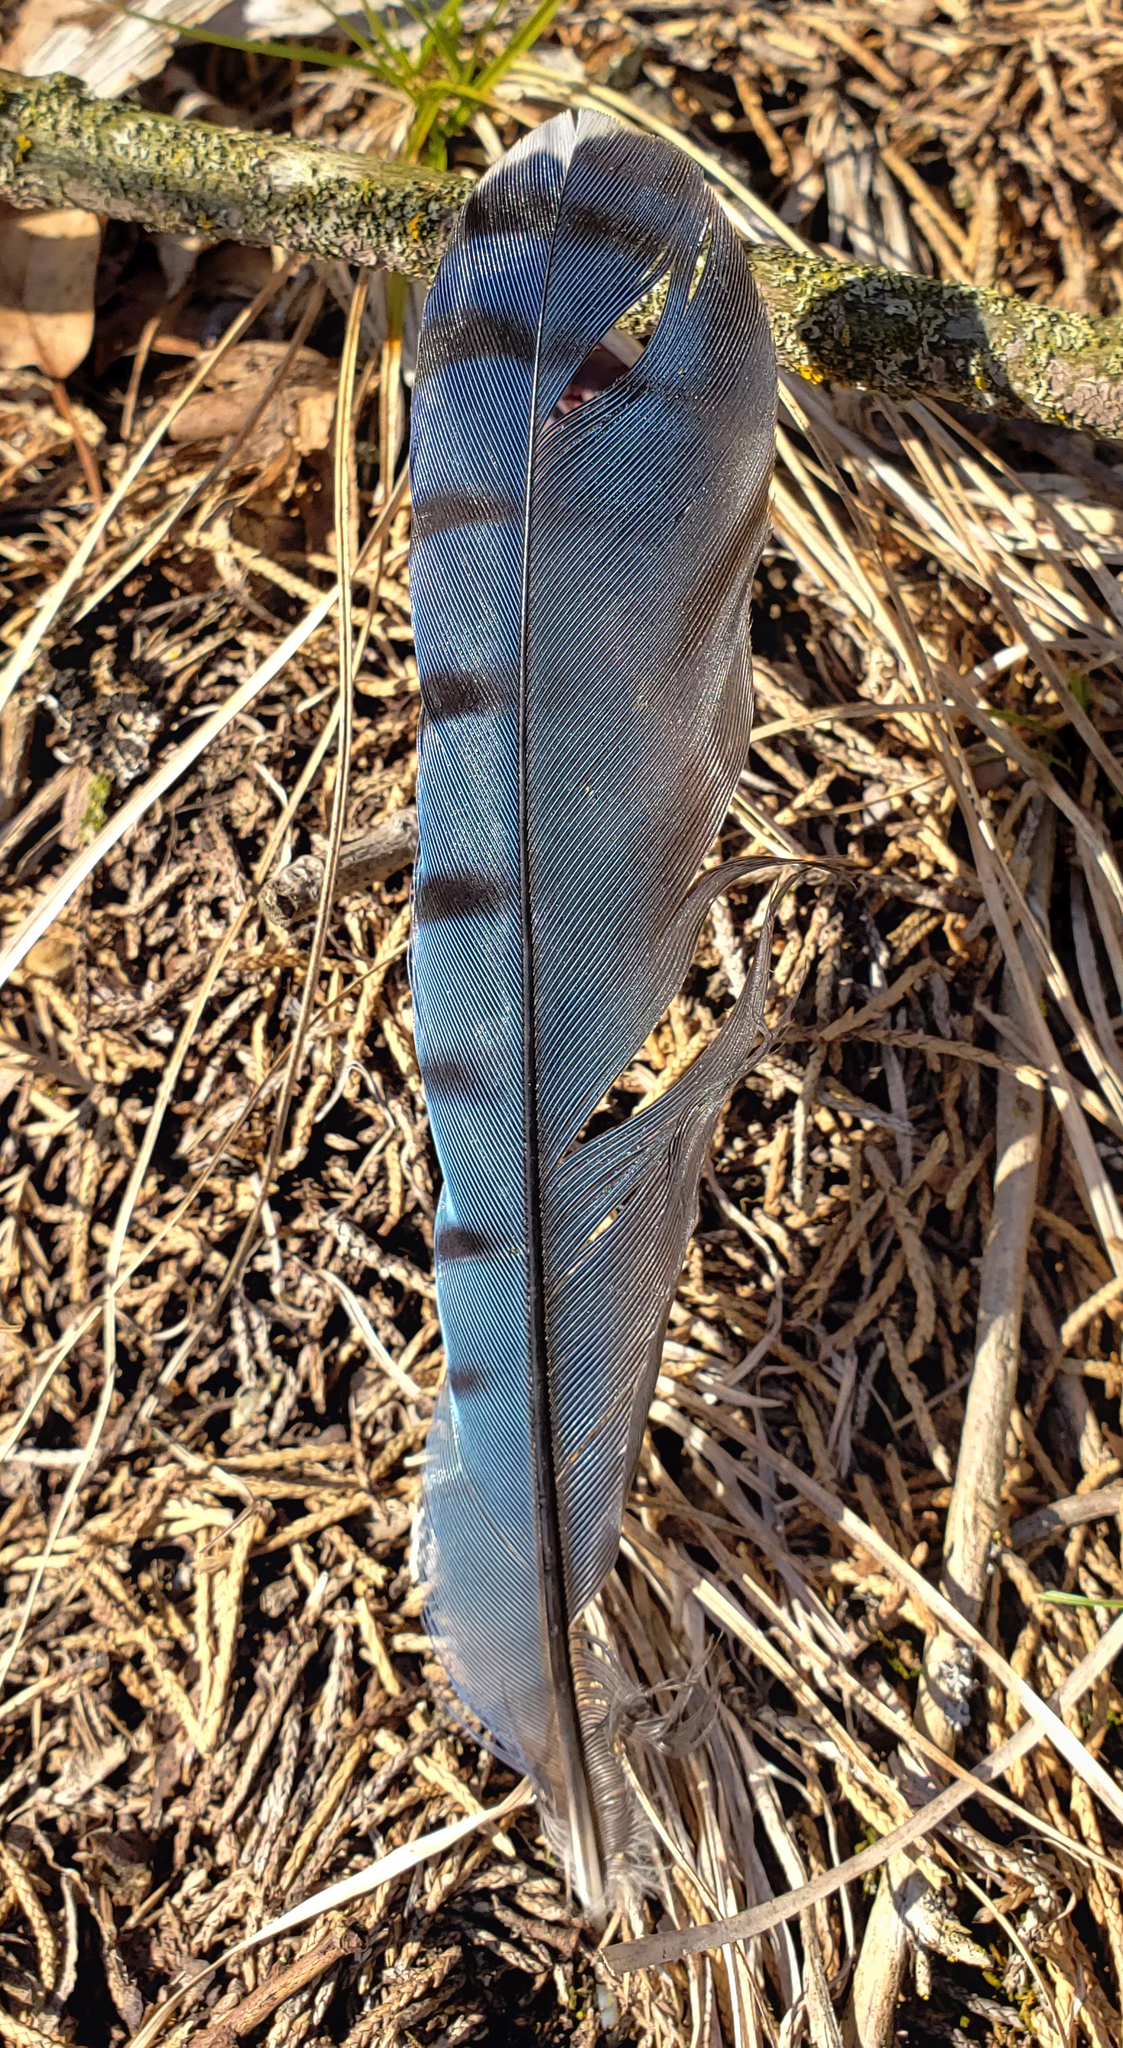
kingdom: Animalia
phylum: Chordata
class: Aves
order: Passeriformes
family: Corvidae
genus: Cyanocitta
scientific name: Cyanocitta cristata
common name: Blue jay
